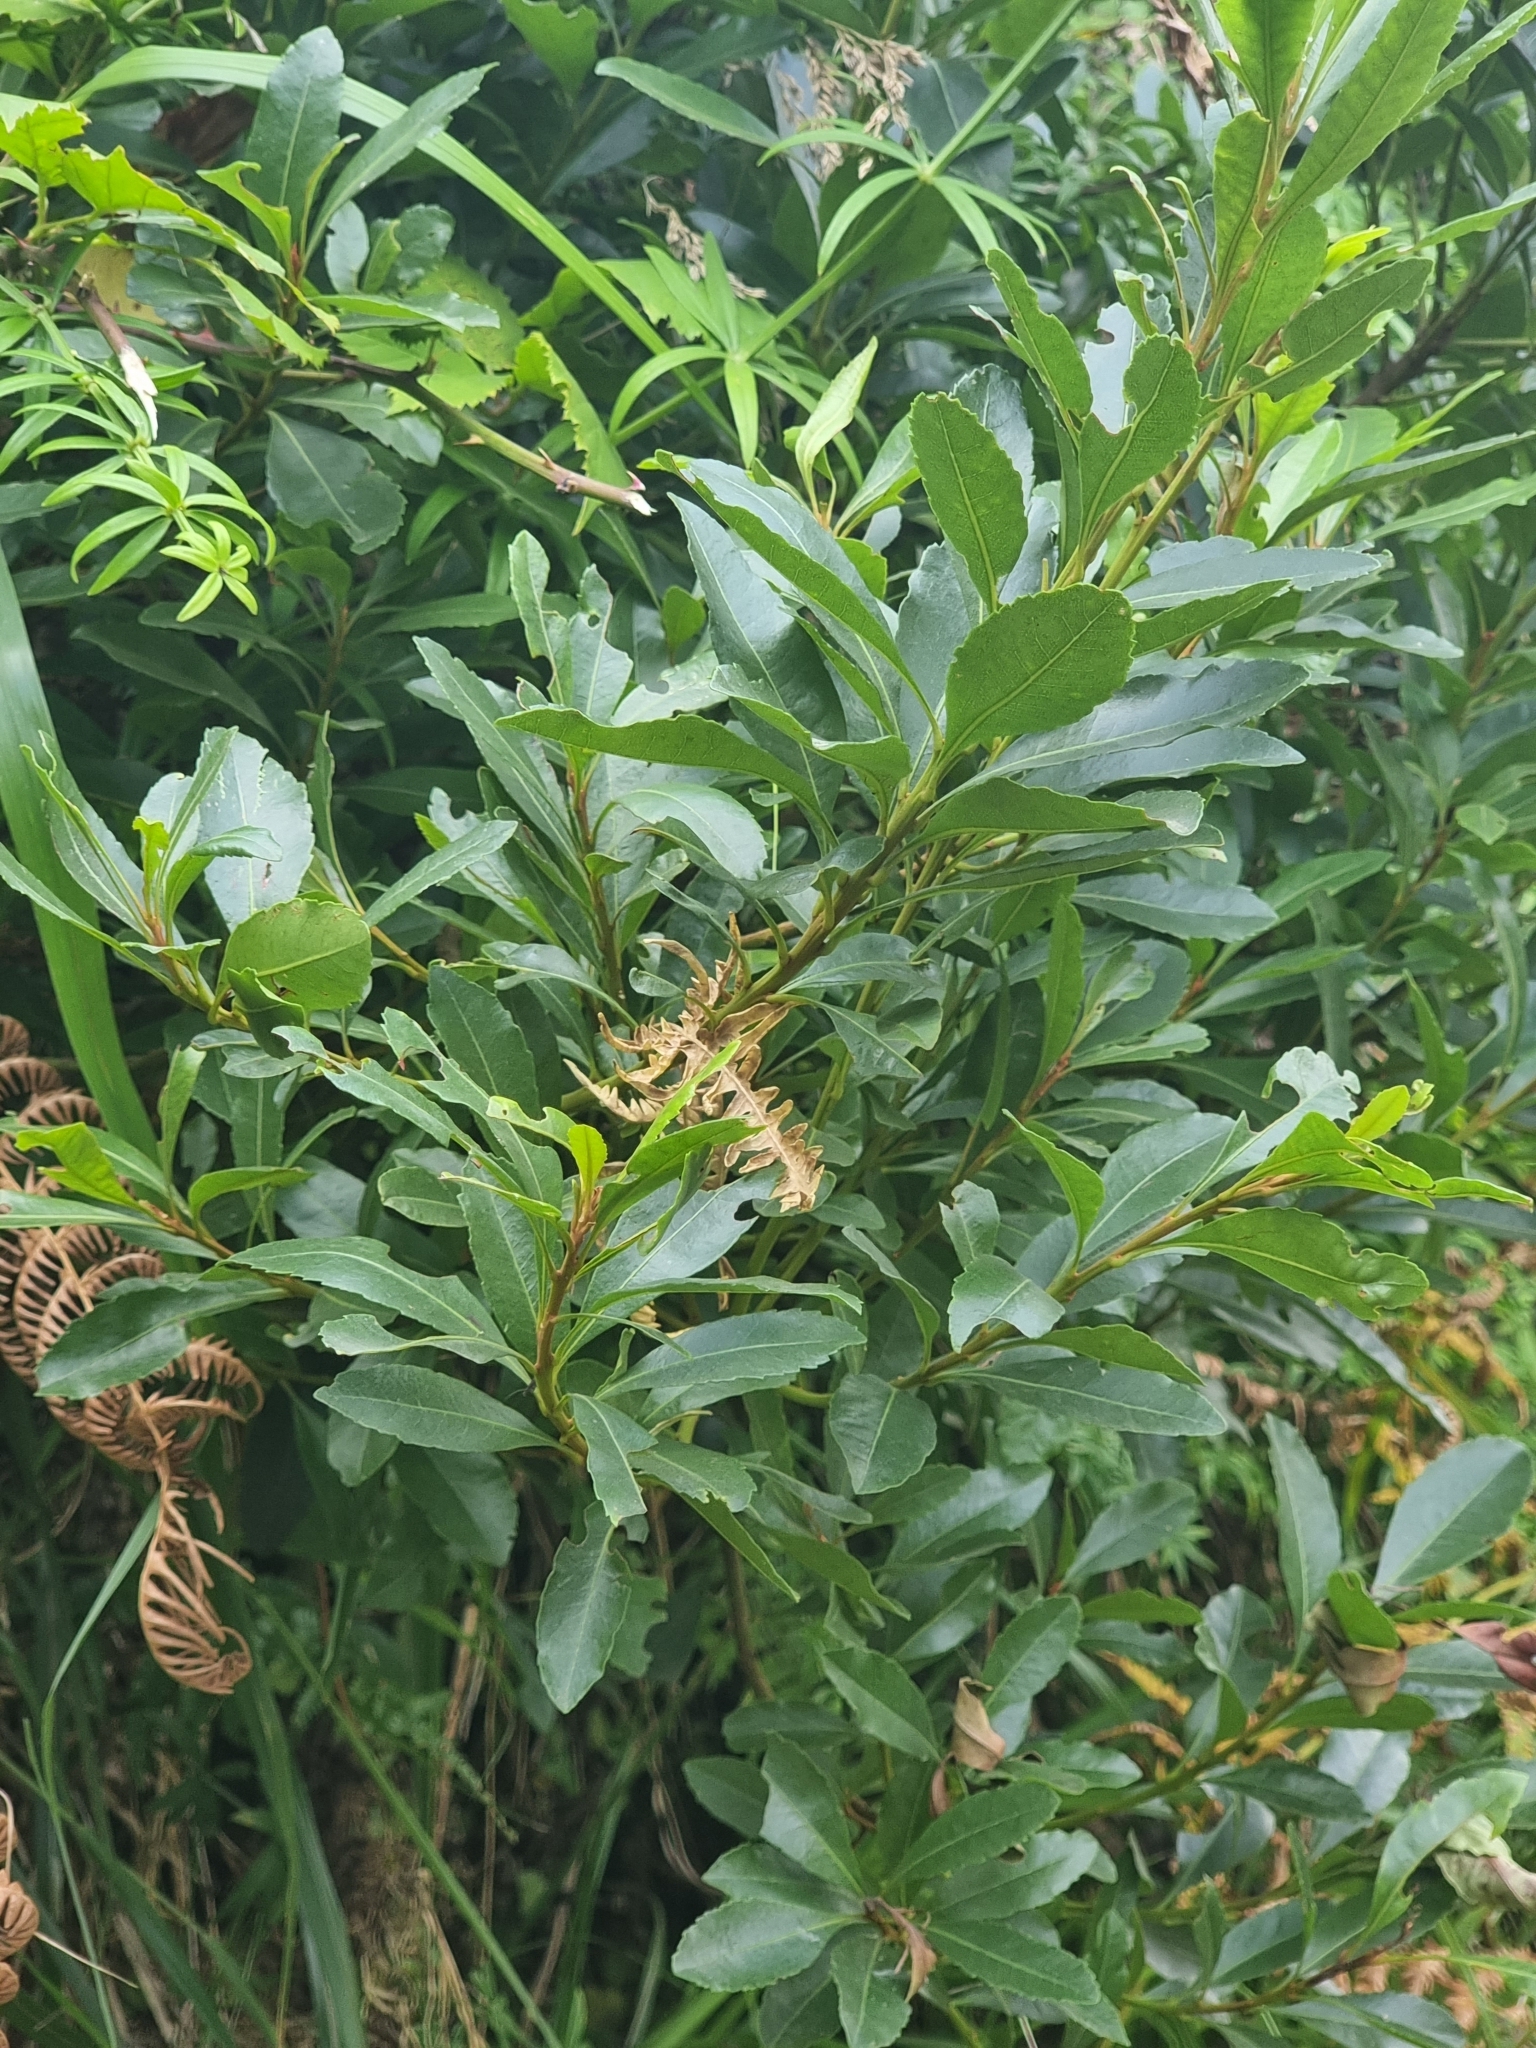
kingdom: Plantae
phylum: Tracheophyta
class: Magnoliopsida
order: Fagales
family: Myricaceae
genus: Morella
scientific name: Morella faya
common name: Firetree
